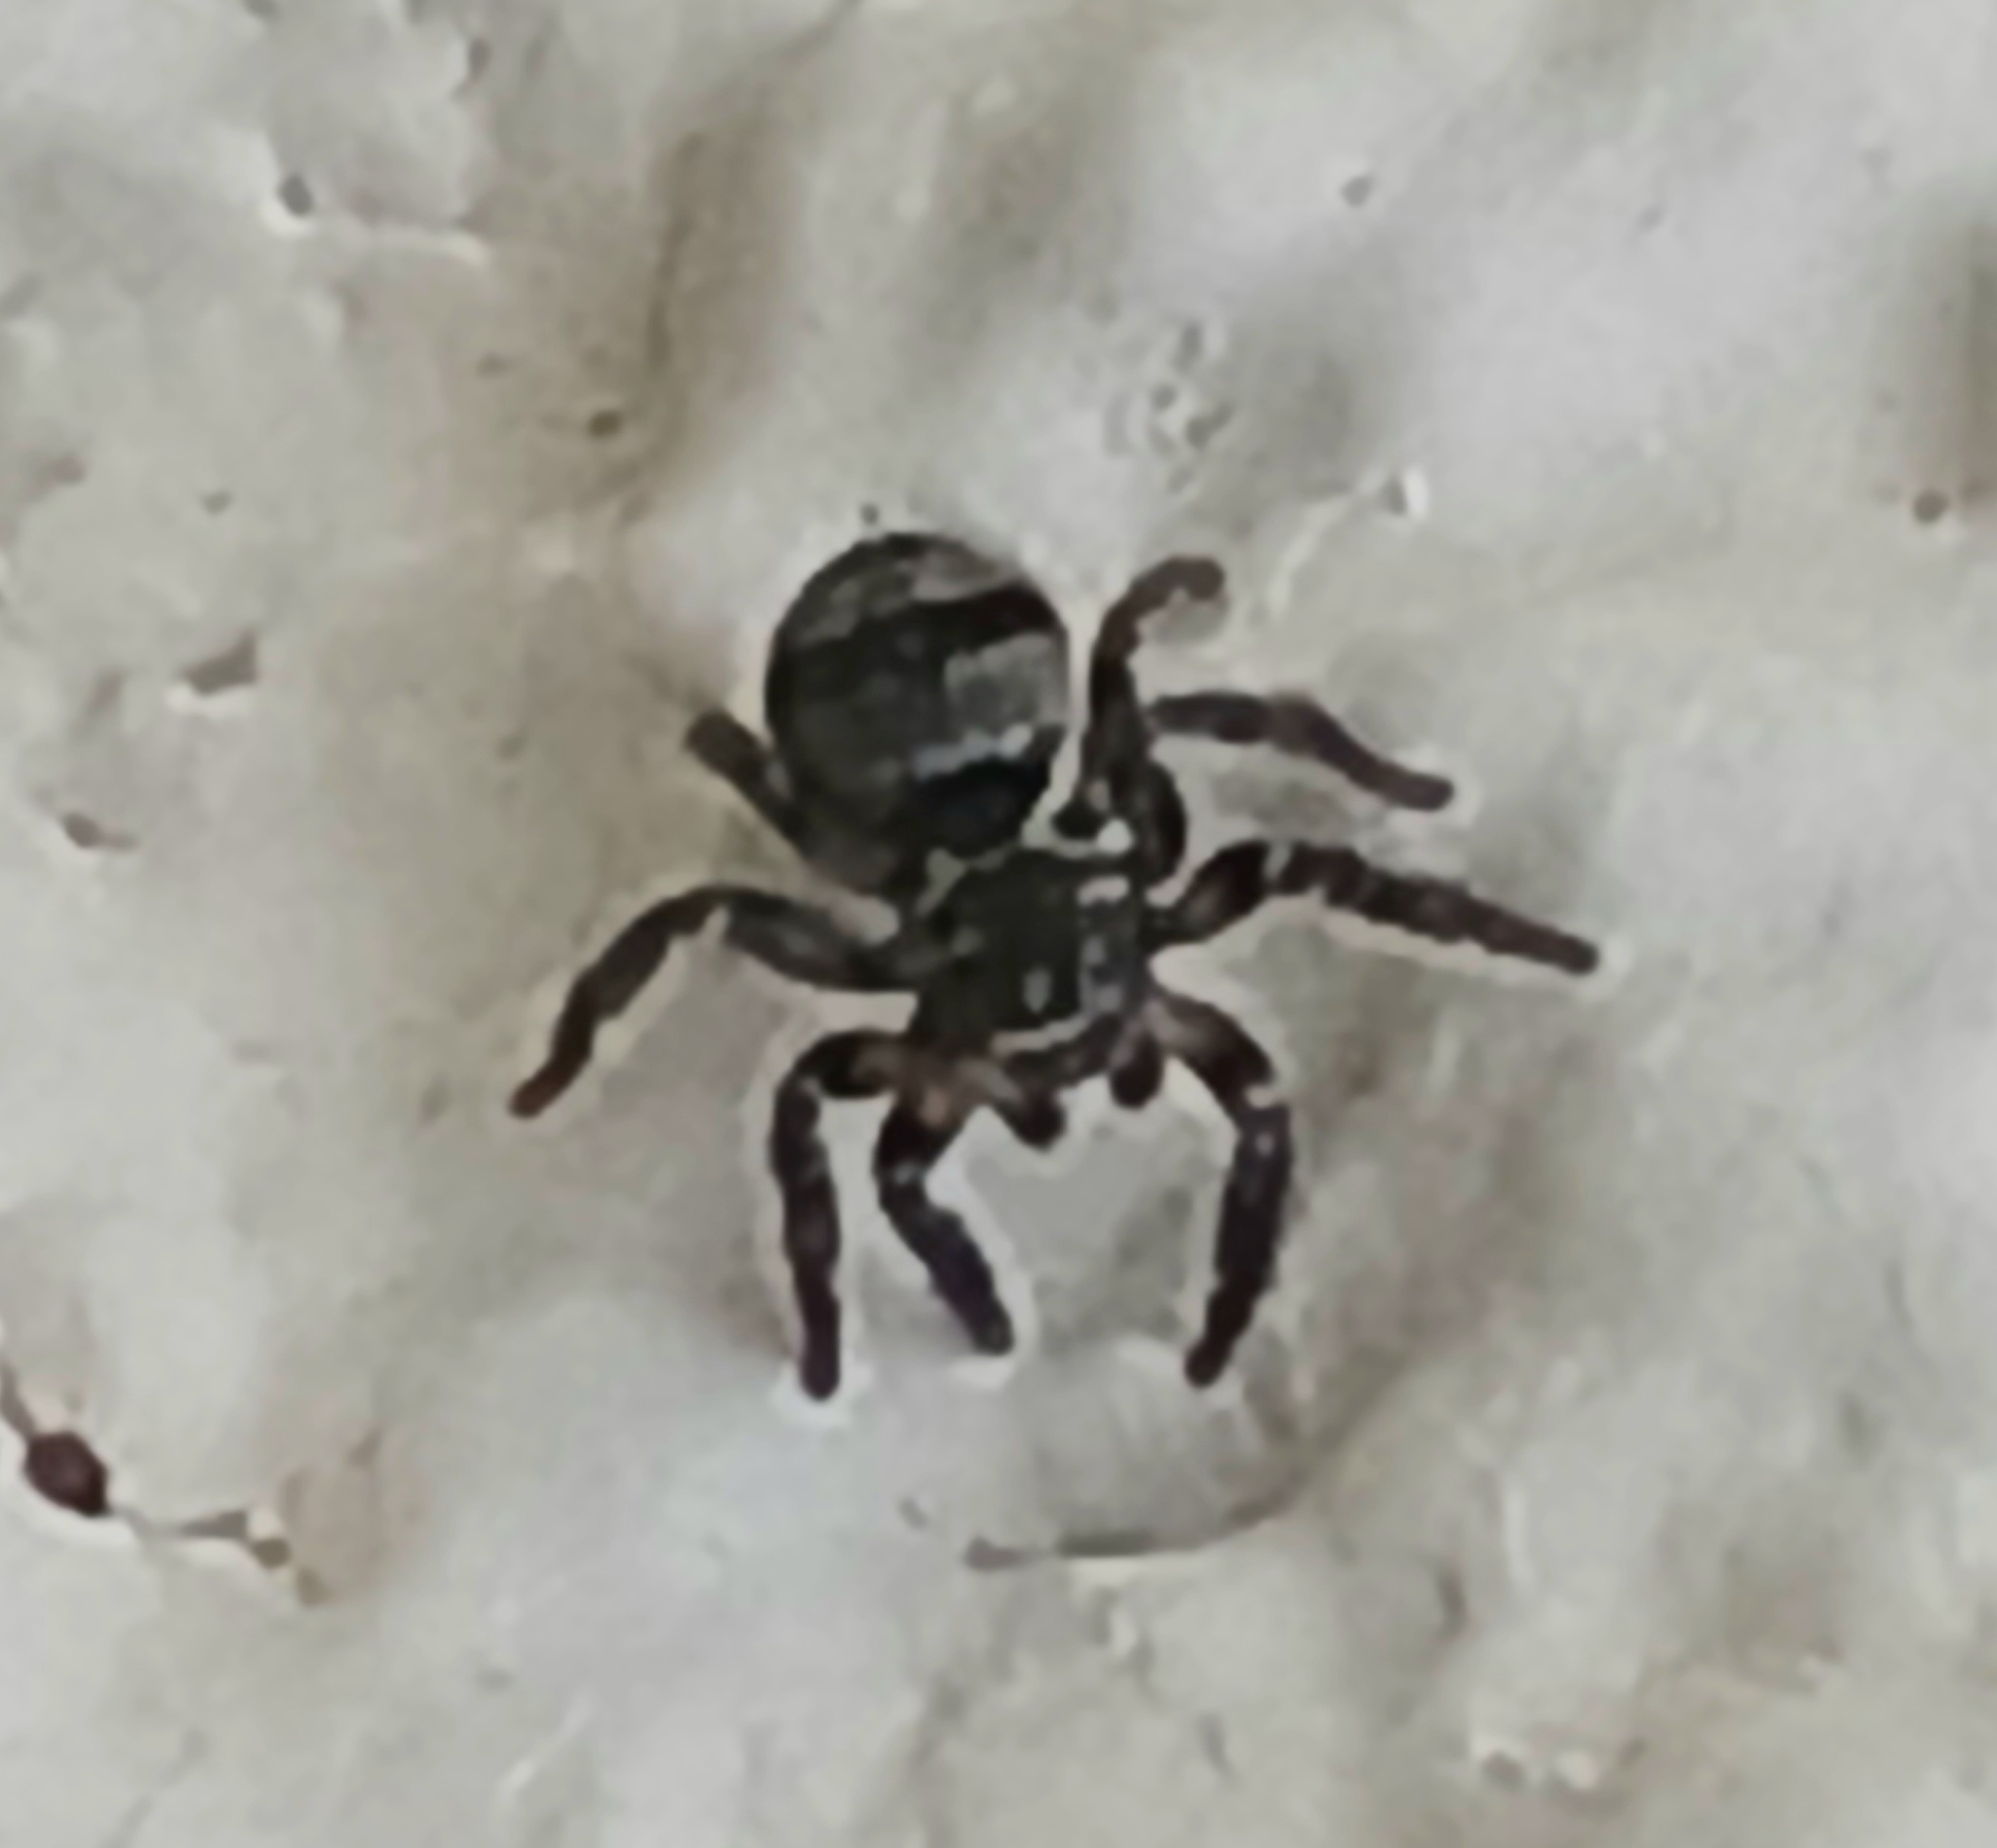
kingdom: Animalia
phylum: Arthropoda
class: Arachnida
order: Araneae
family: Salticidae
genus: Corythalia
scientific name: Corythalia conferta
